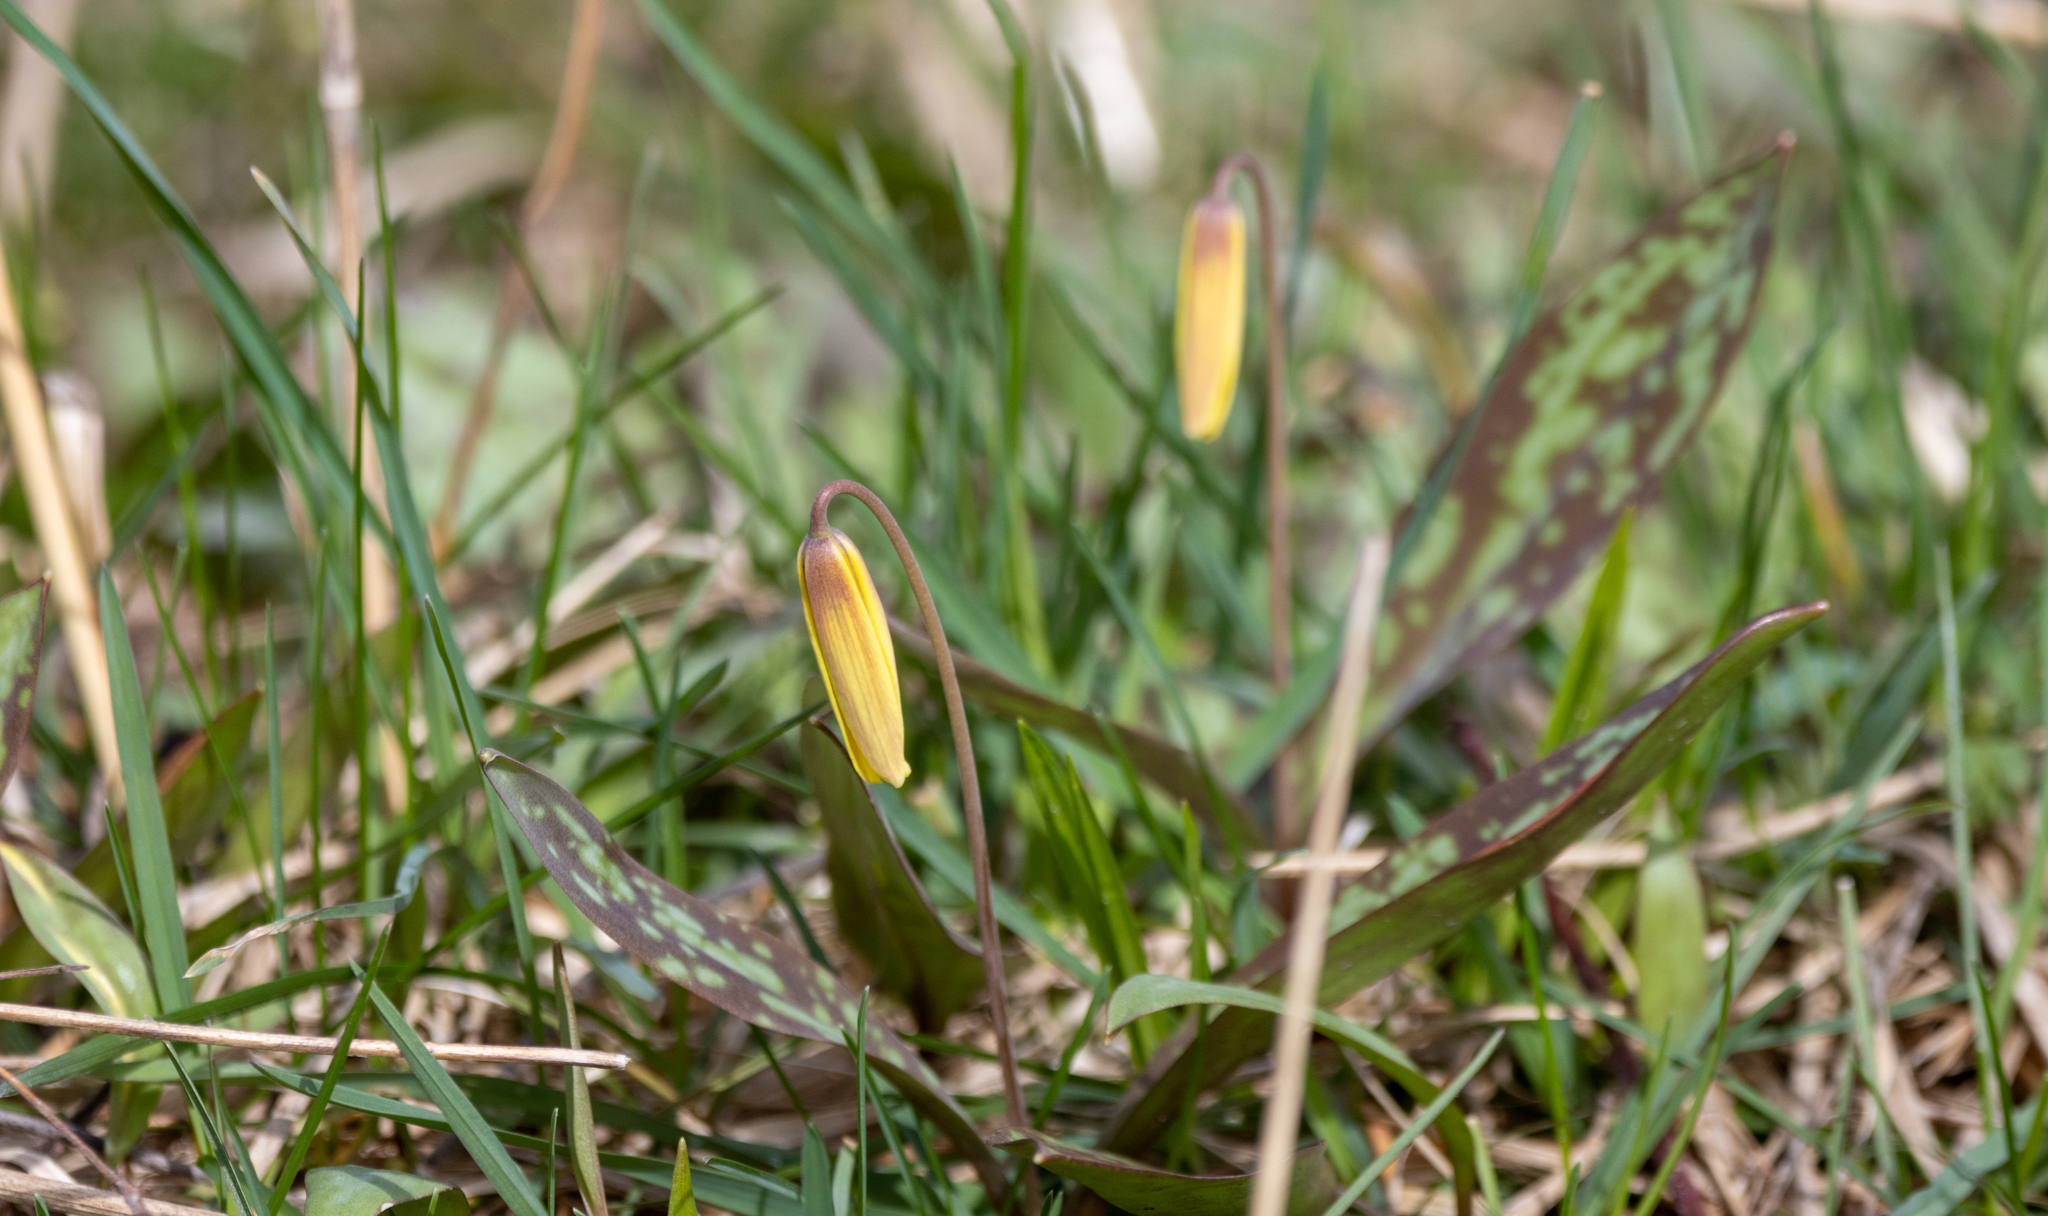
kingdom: Plantae
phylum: Tracheophyta
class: Liliopsida
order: Liliales
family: Liliaceae
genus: Erythronium
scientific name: Erythronium americanum
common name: Yellow adder's-tongue
